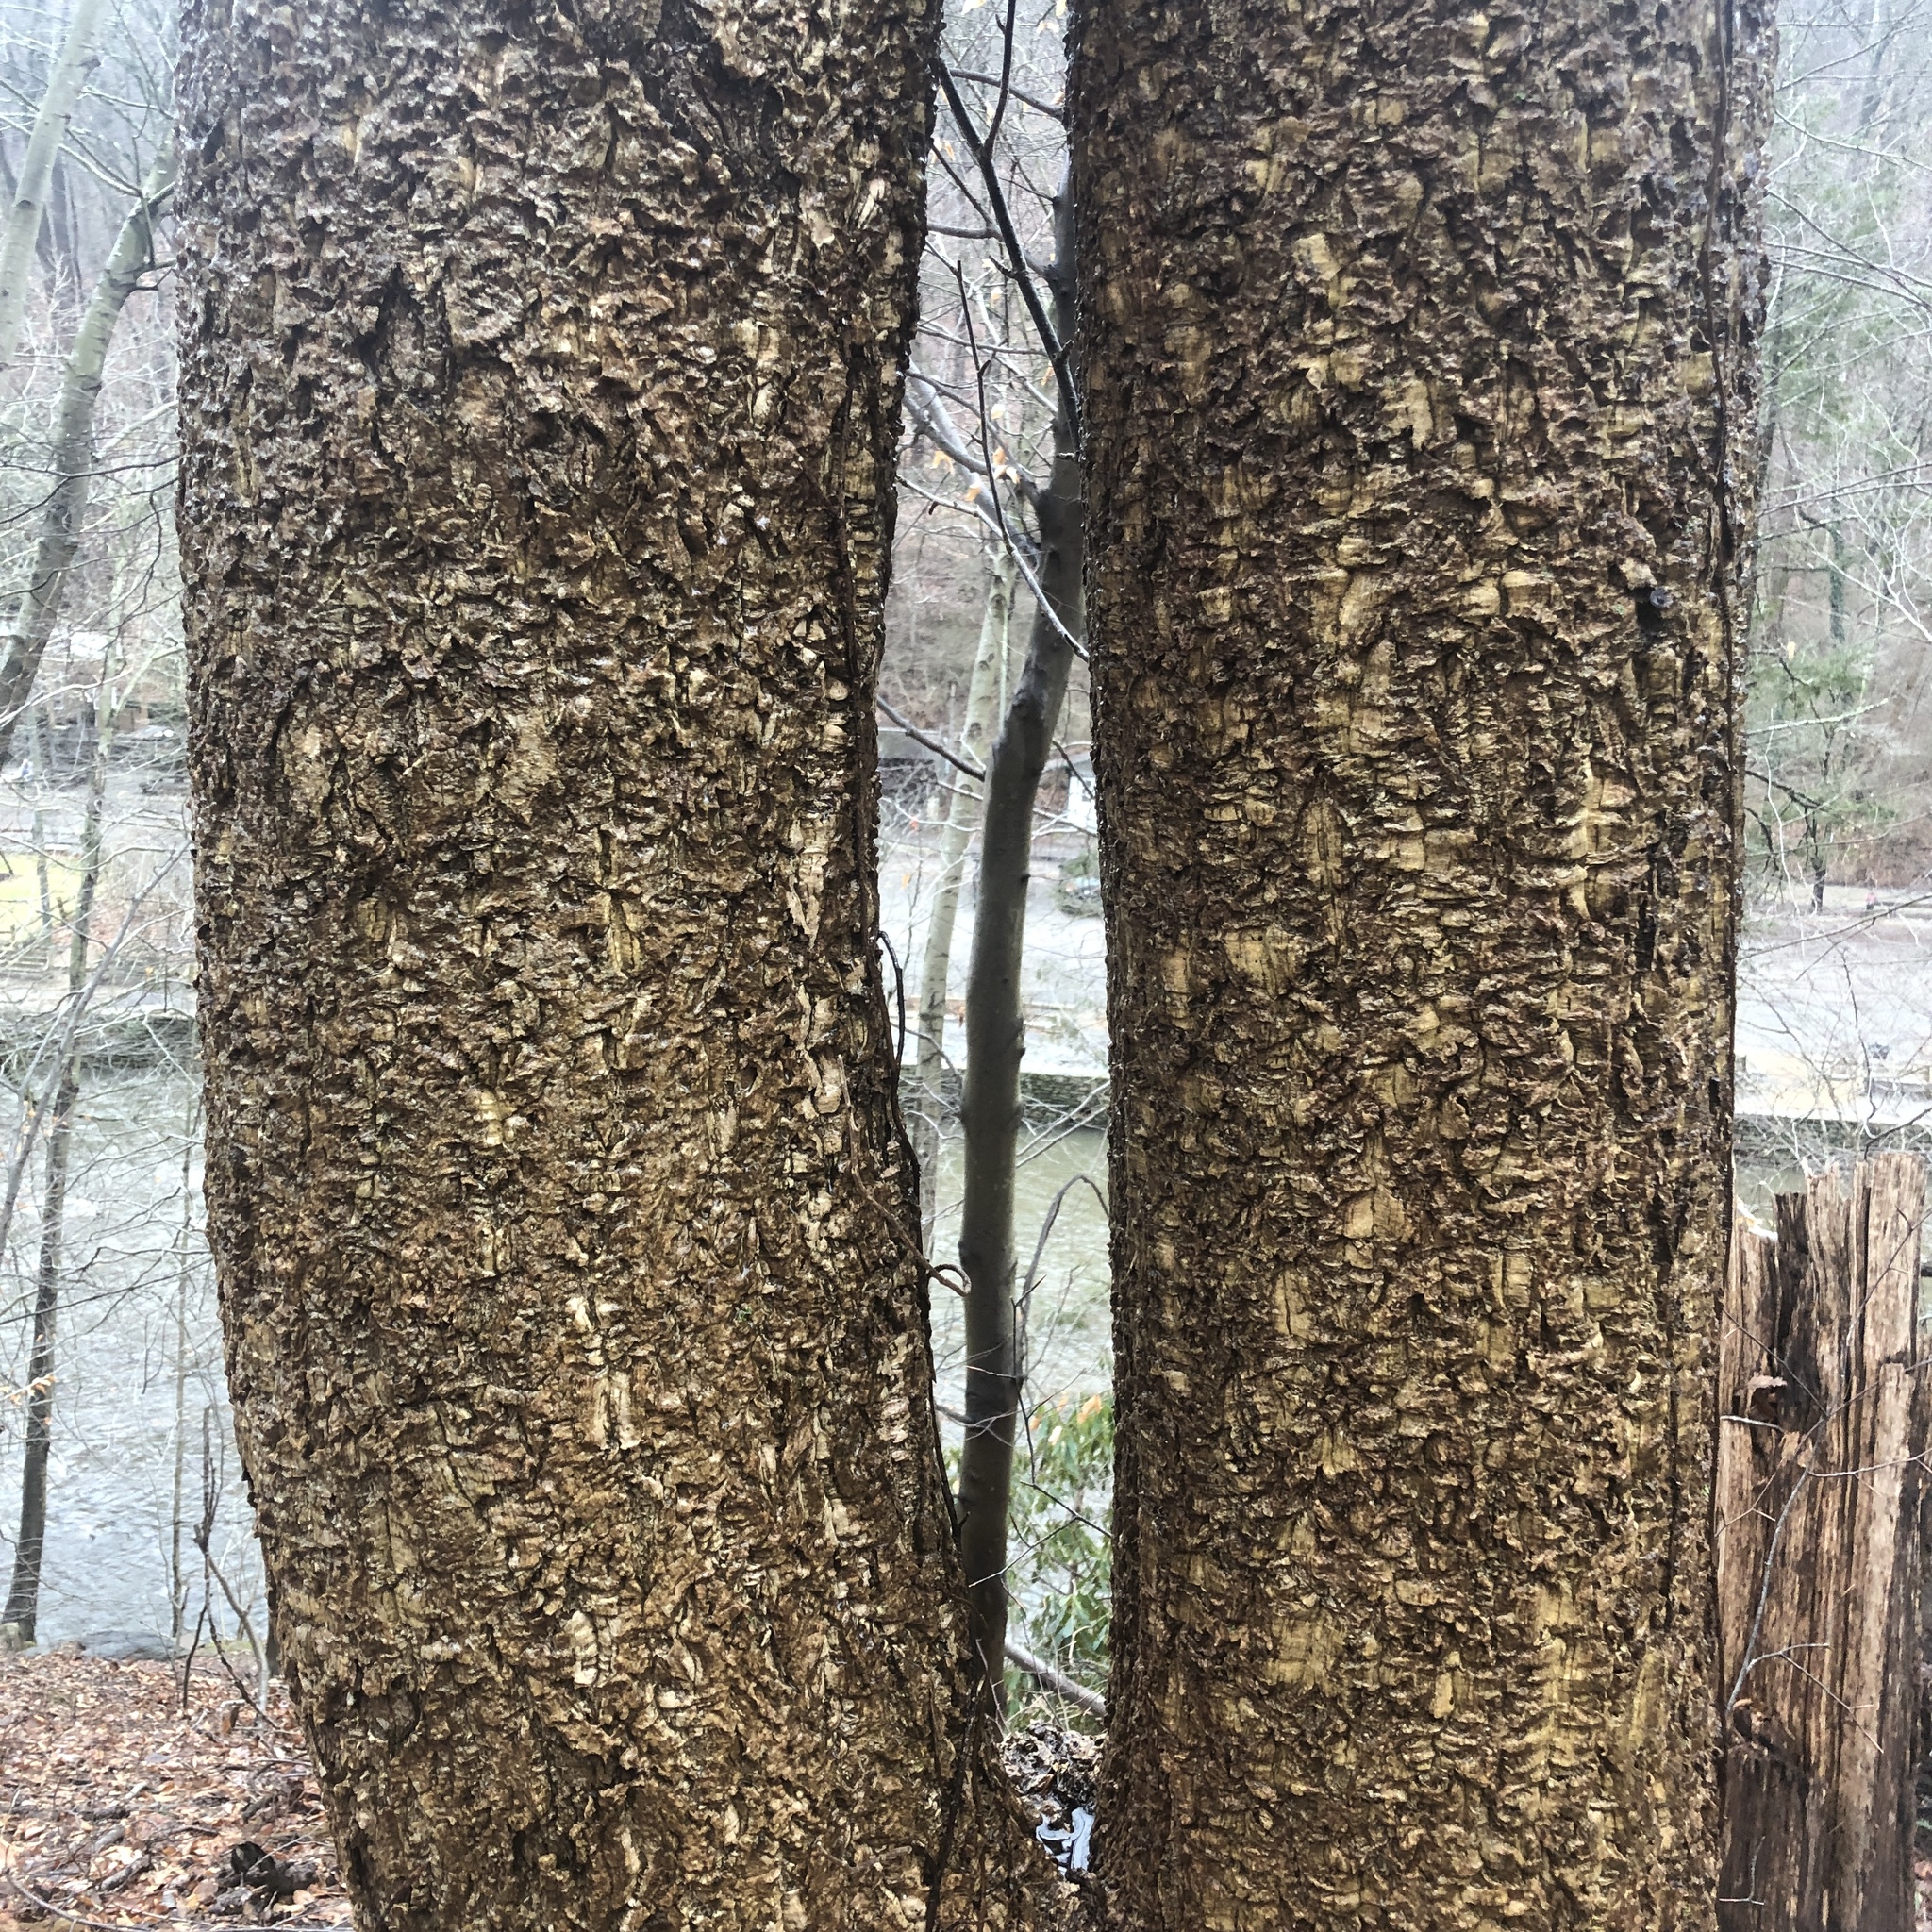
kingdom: Plantae
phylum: Tracheophyta
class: Magnoliopsida
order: Sapindales
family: Rutaceae
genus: Phellodendron
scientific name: Phellodendron amurense
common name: Amur corktree
